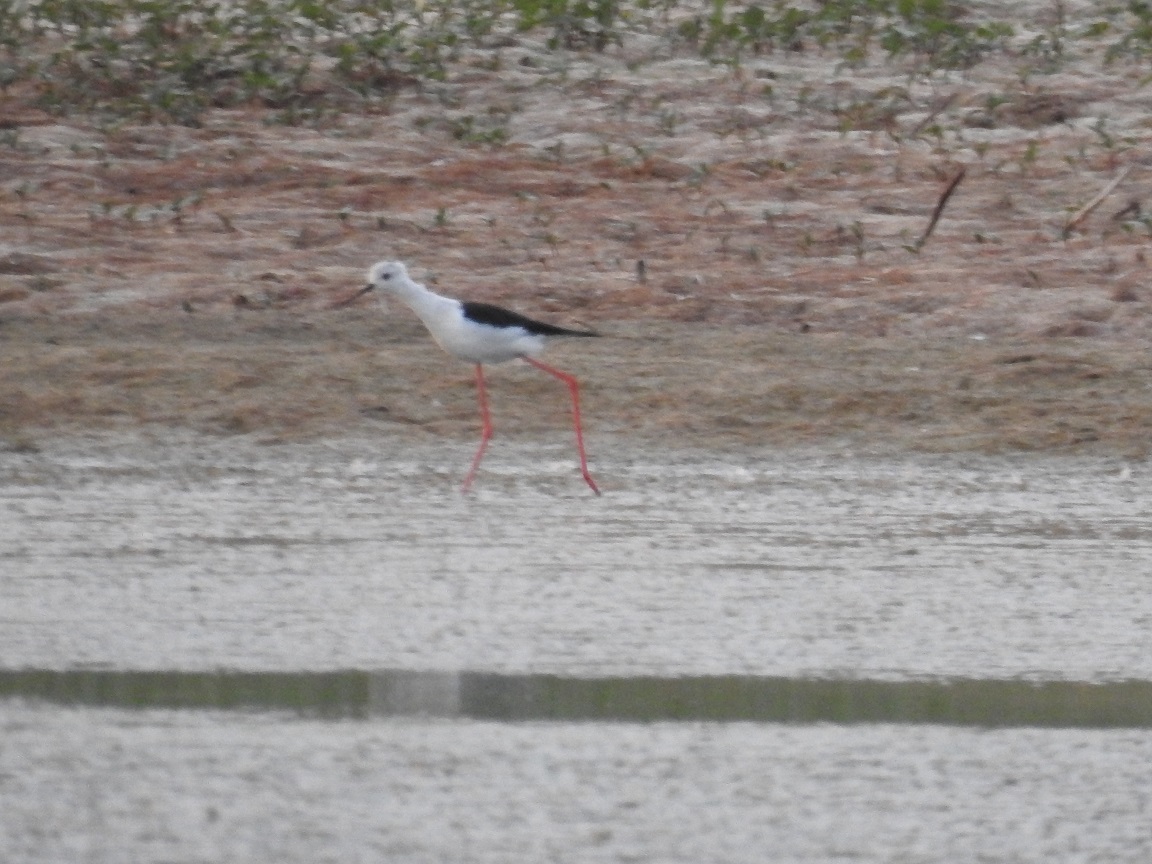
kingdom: Animalia
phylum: Chordata
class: Aves
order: Charadriiformes
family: Recurvirostridae
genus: Himantopus
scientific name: Himantopus himantopus
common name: Black-winged stilt
